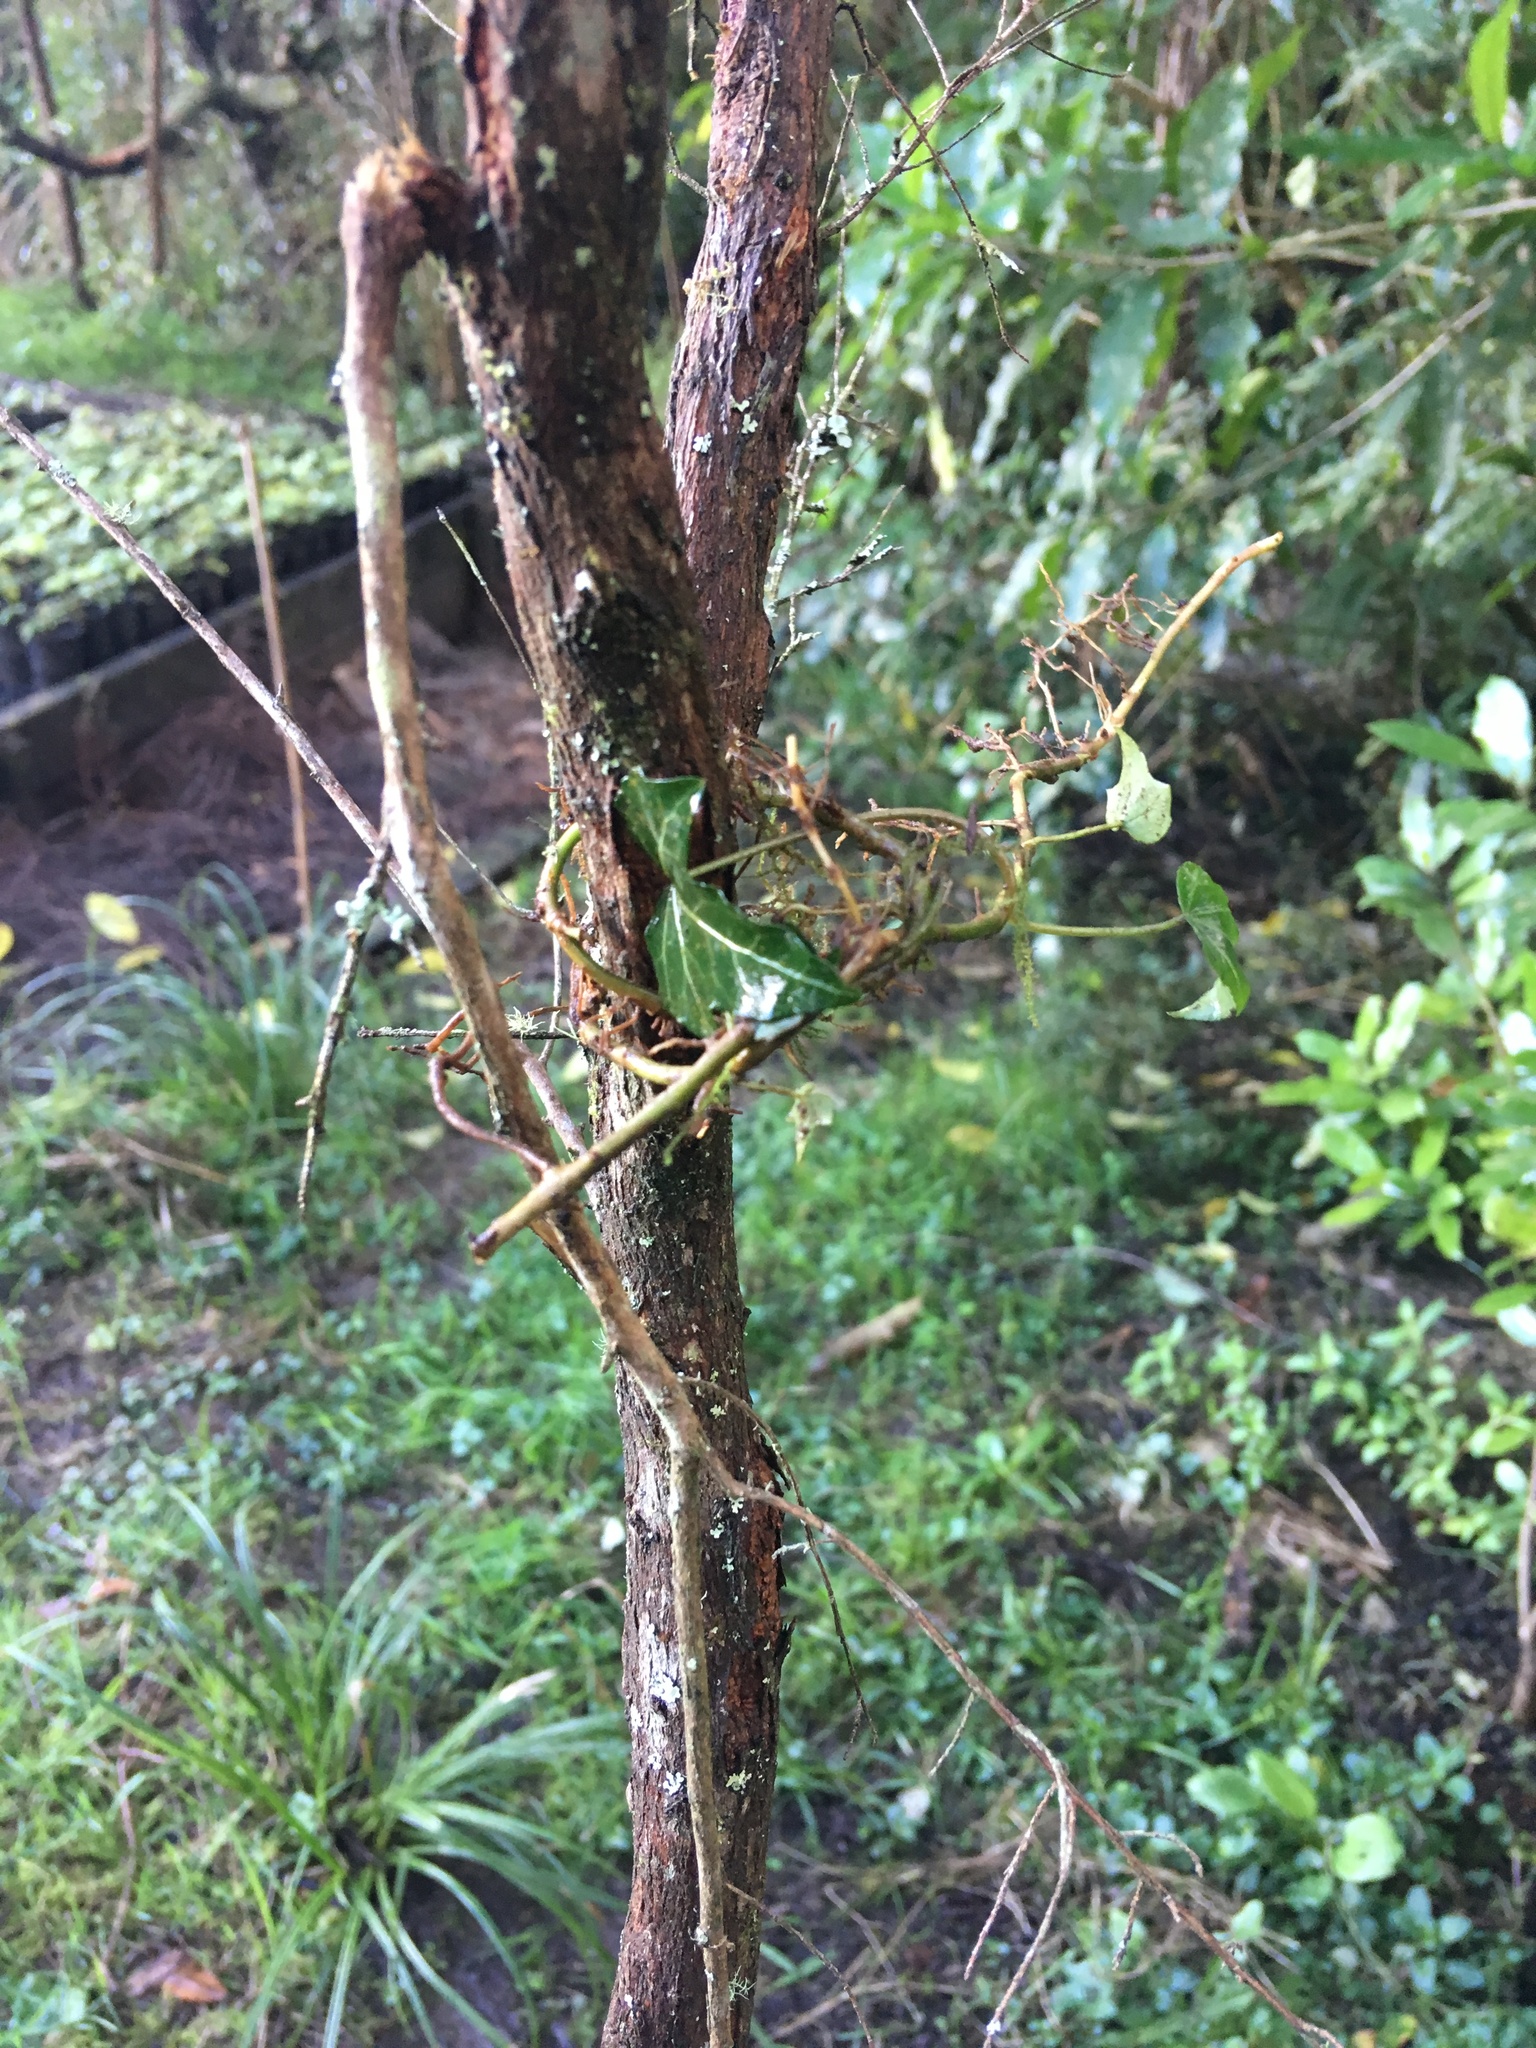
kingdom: Plantae
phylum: Tracheophyta
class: Magnoliopsida
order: Apiales
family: Araliaceae
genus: Hedera
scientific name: Hedera helix
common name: Ivy
